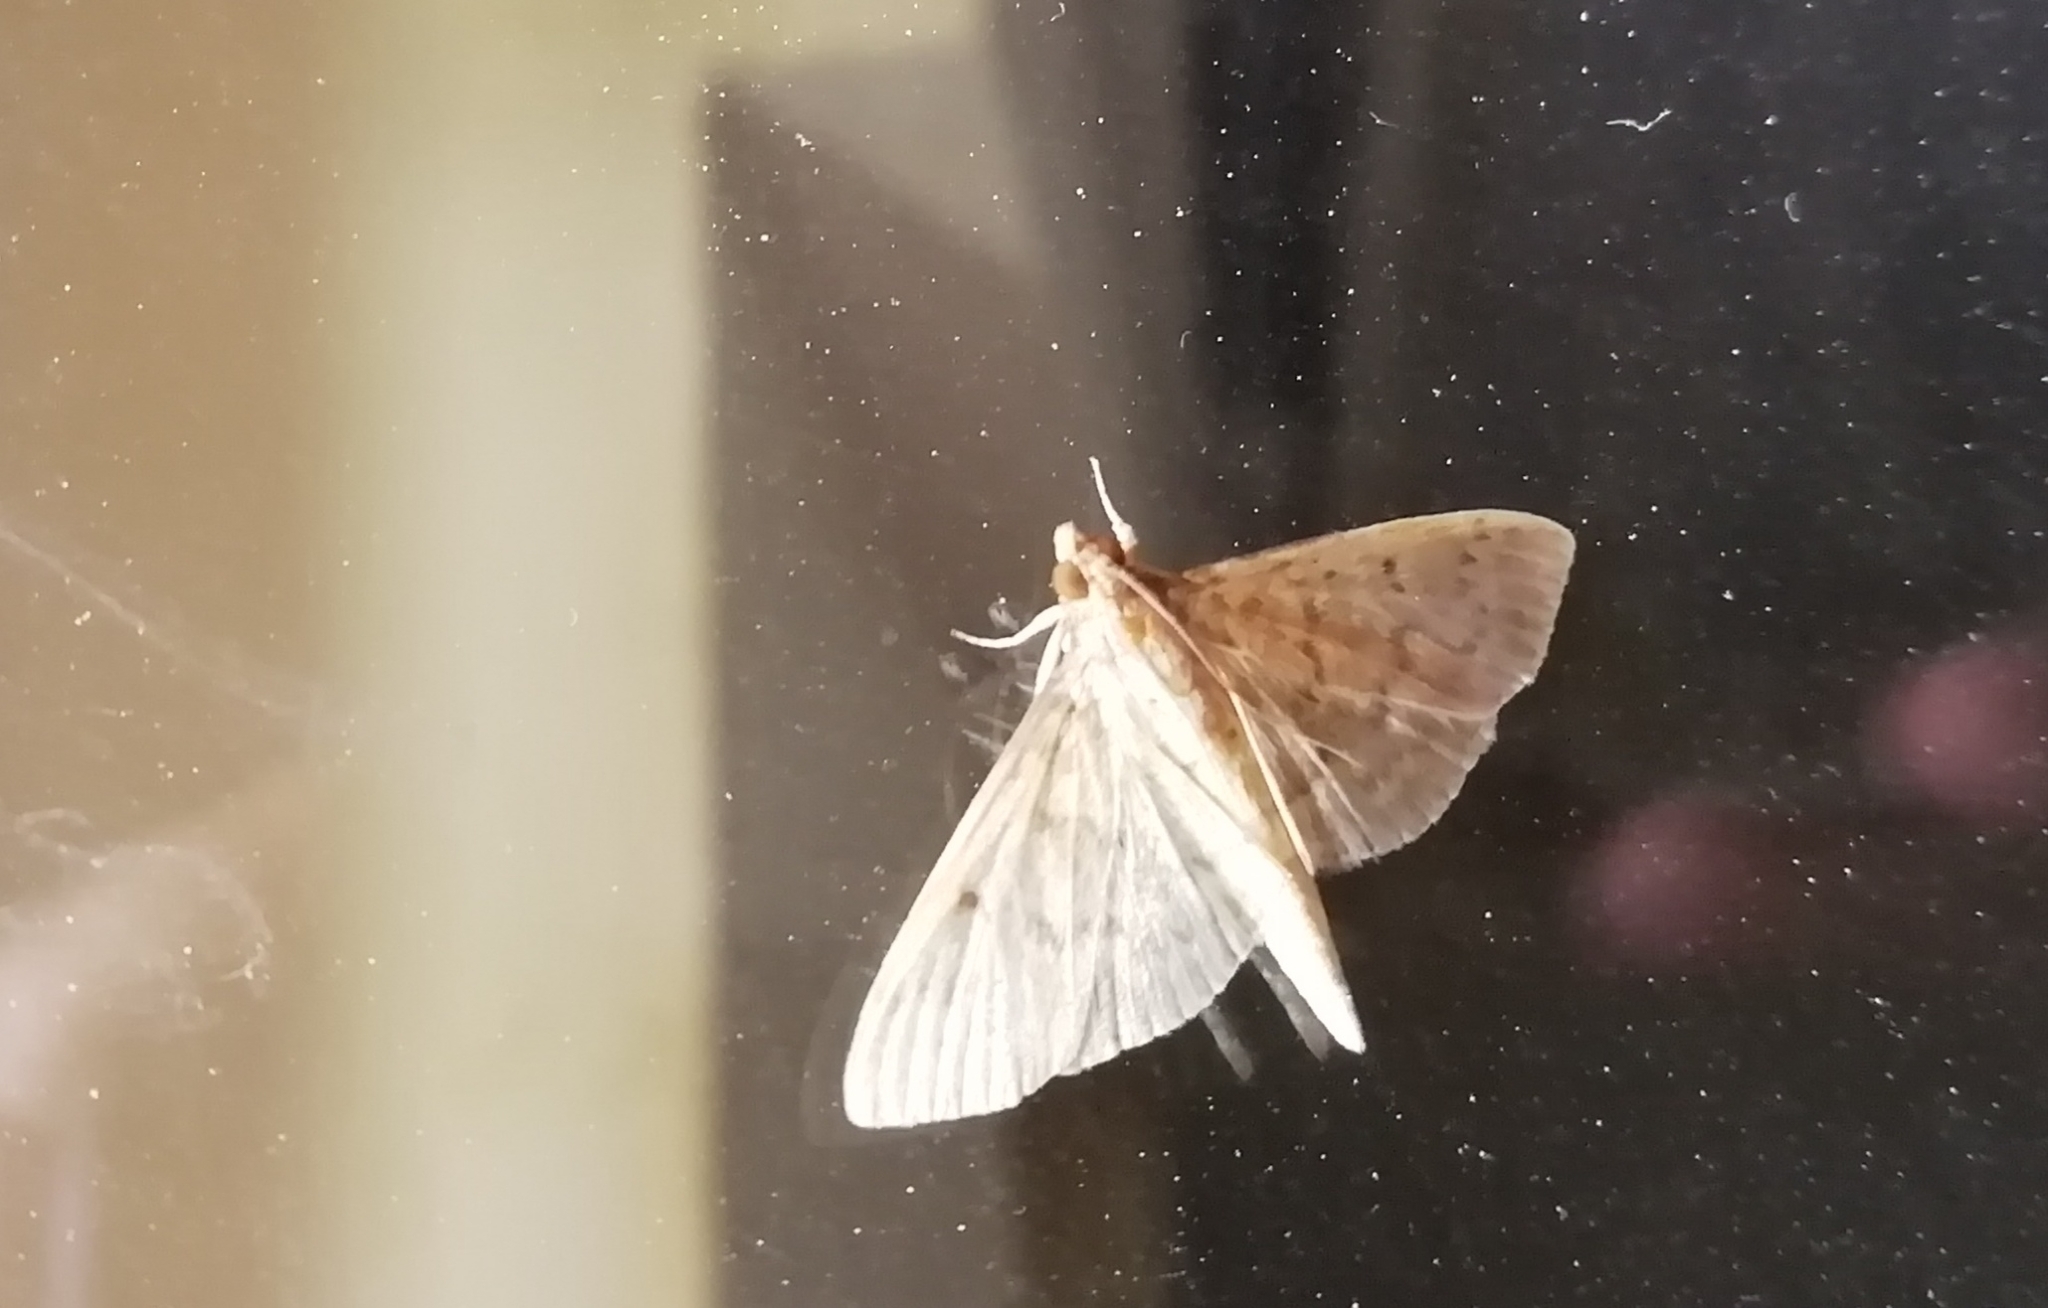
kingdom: Animalia
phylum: Arthropoda
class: Insecta
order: Lepidoptera
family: Crambidae
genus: Herpetogramma
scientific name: Herpetogramma licarsisalis
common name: Grass webworm
